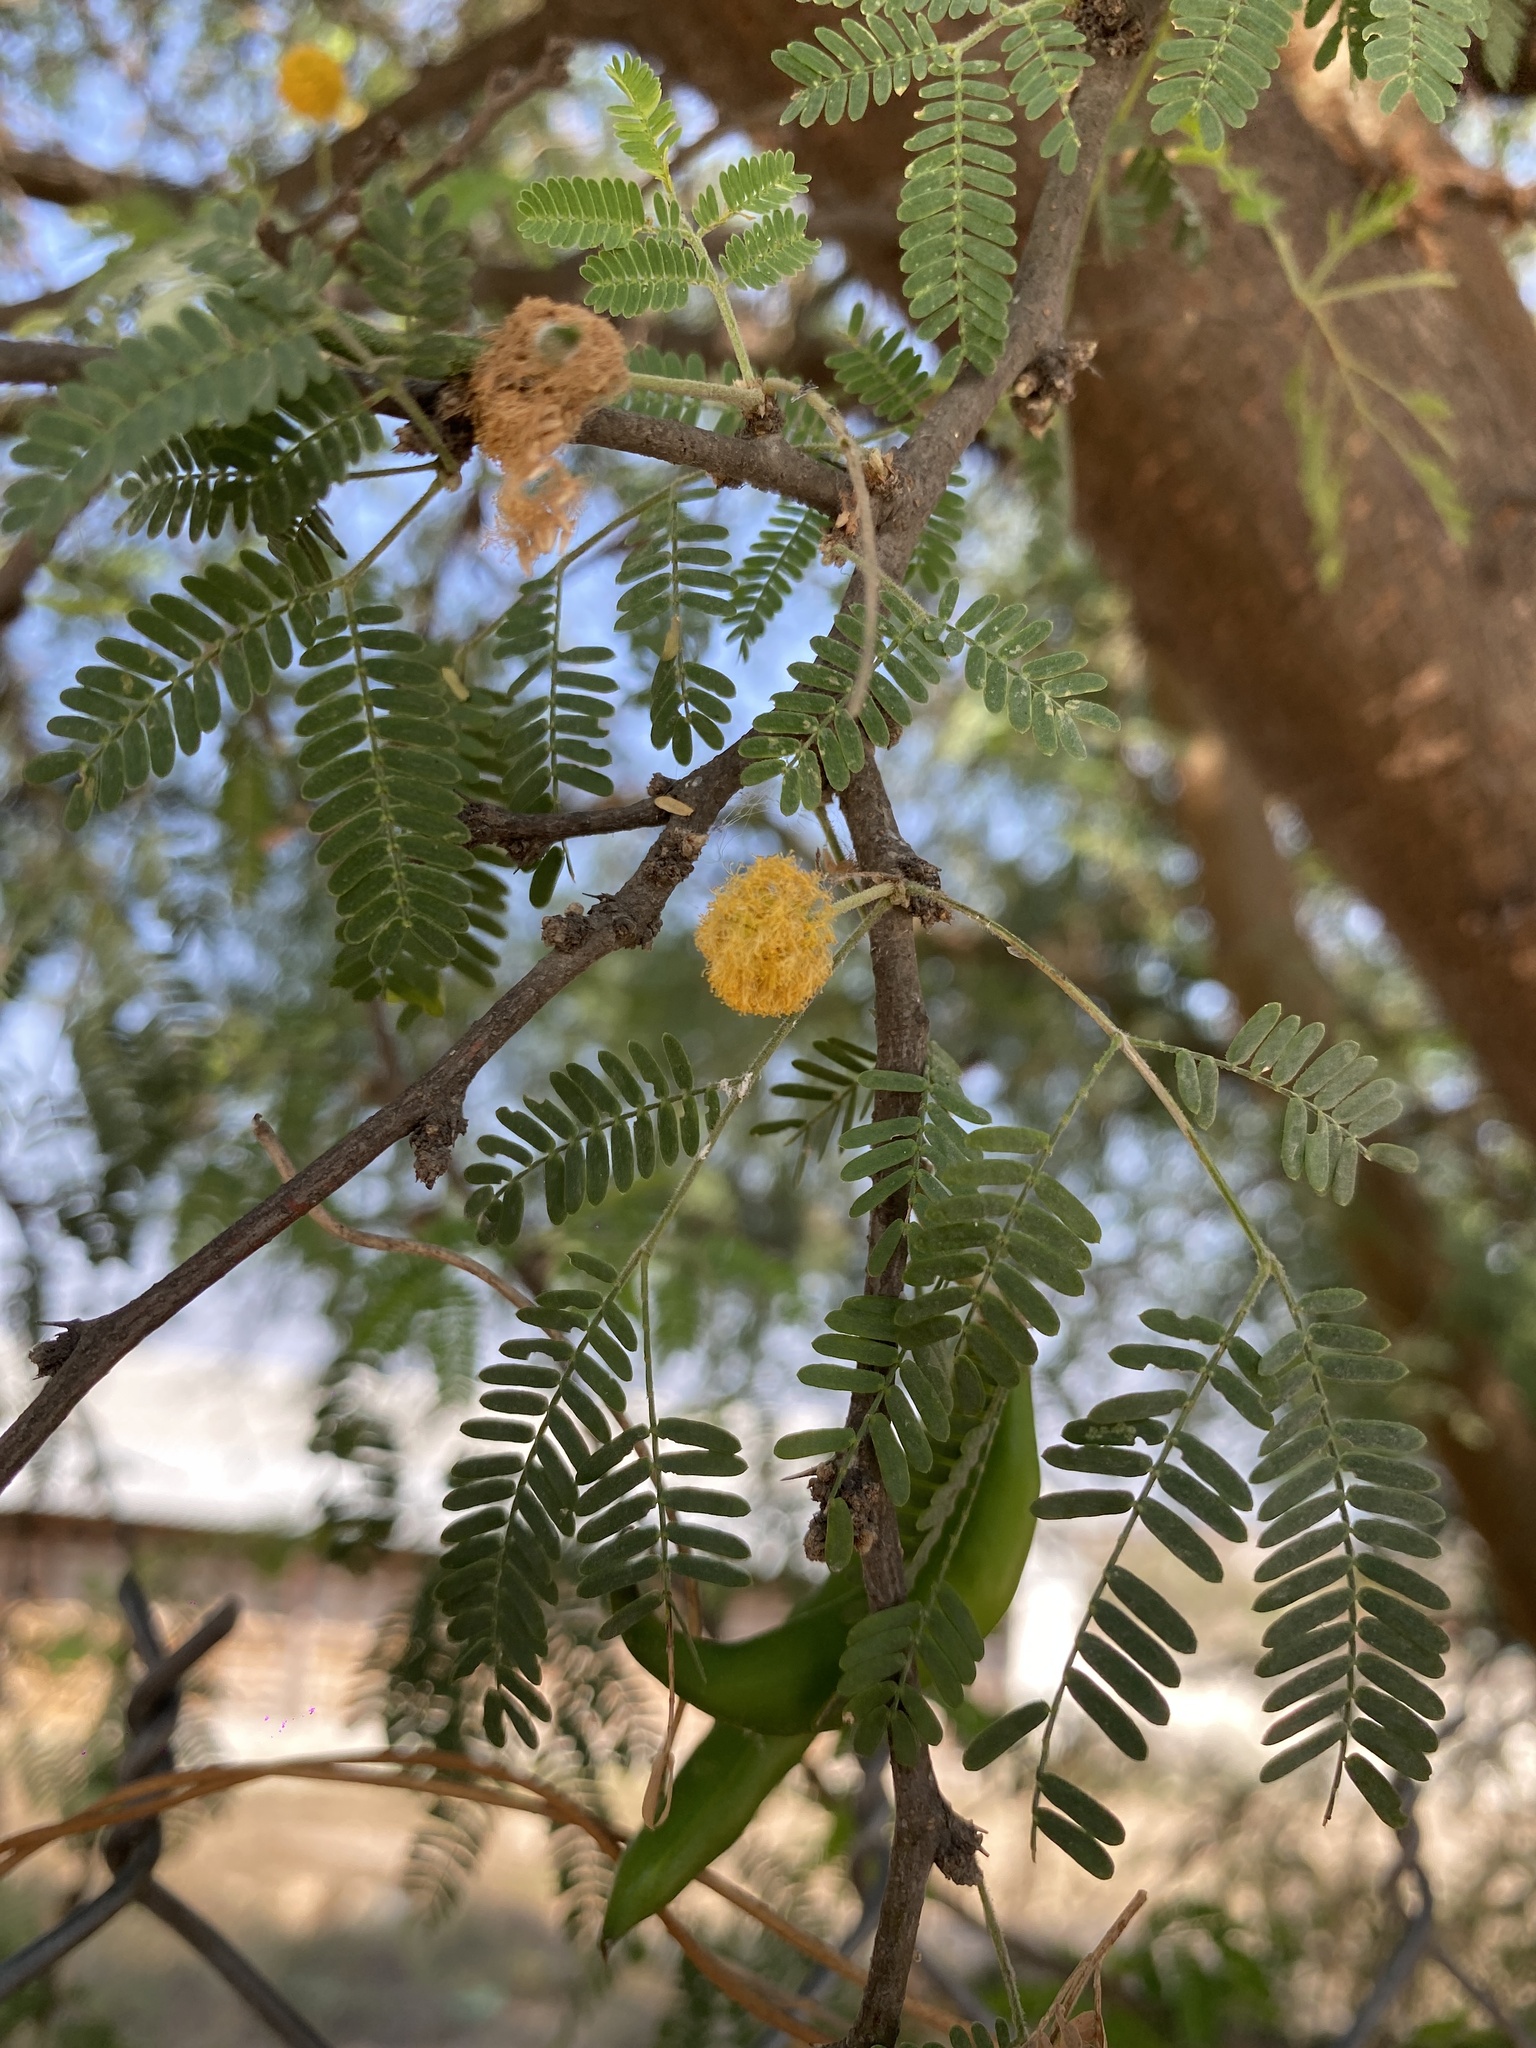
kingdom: Plantae
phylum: Tracheophyta
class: Magnoliopsida
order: Fabales
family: Fabaceae
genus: Vachellia
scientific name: Vachellia farnesiana
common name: Sweet acacia
